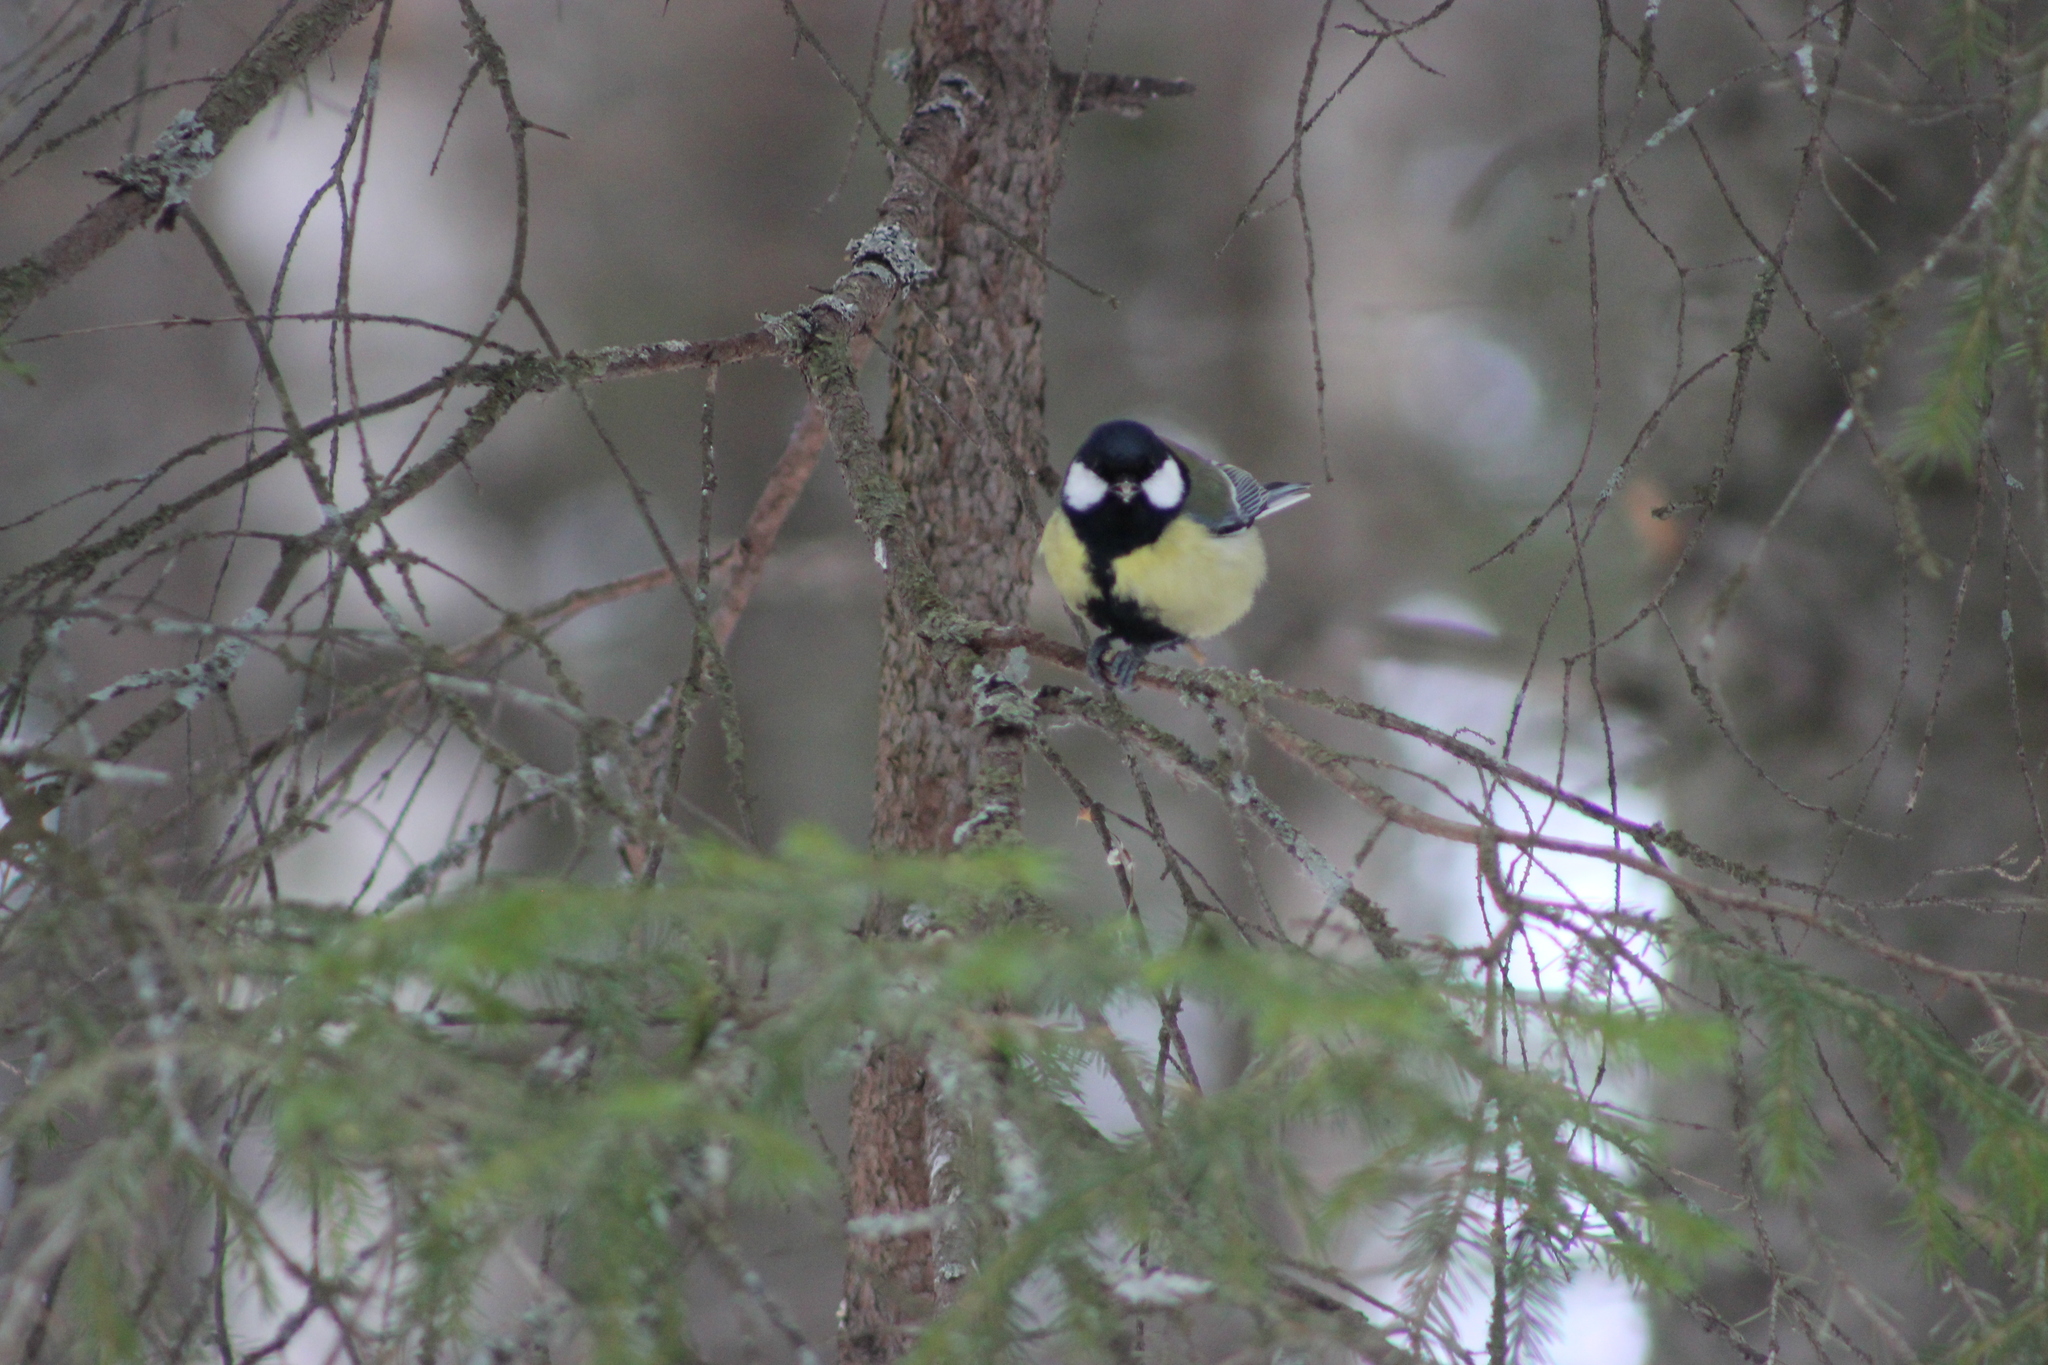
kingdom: Animalia
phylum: Chordata
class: Aves
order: Passeriformes
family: Paridae
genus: Parus
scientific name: Parus major
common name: Great tit
